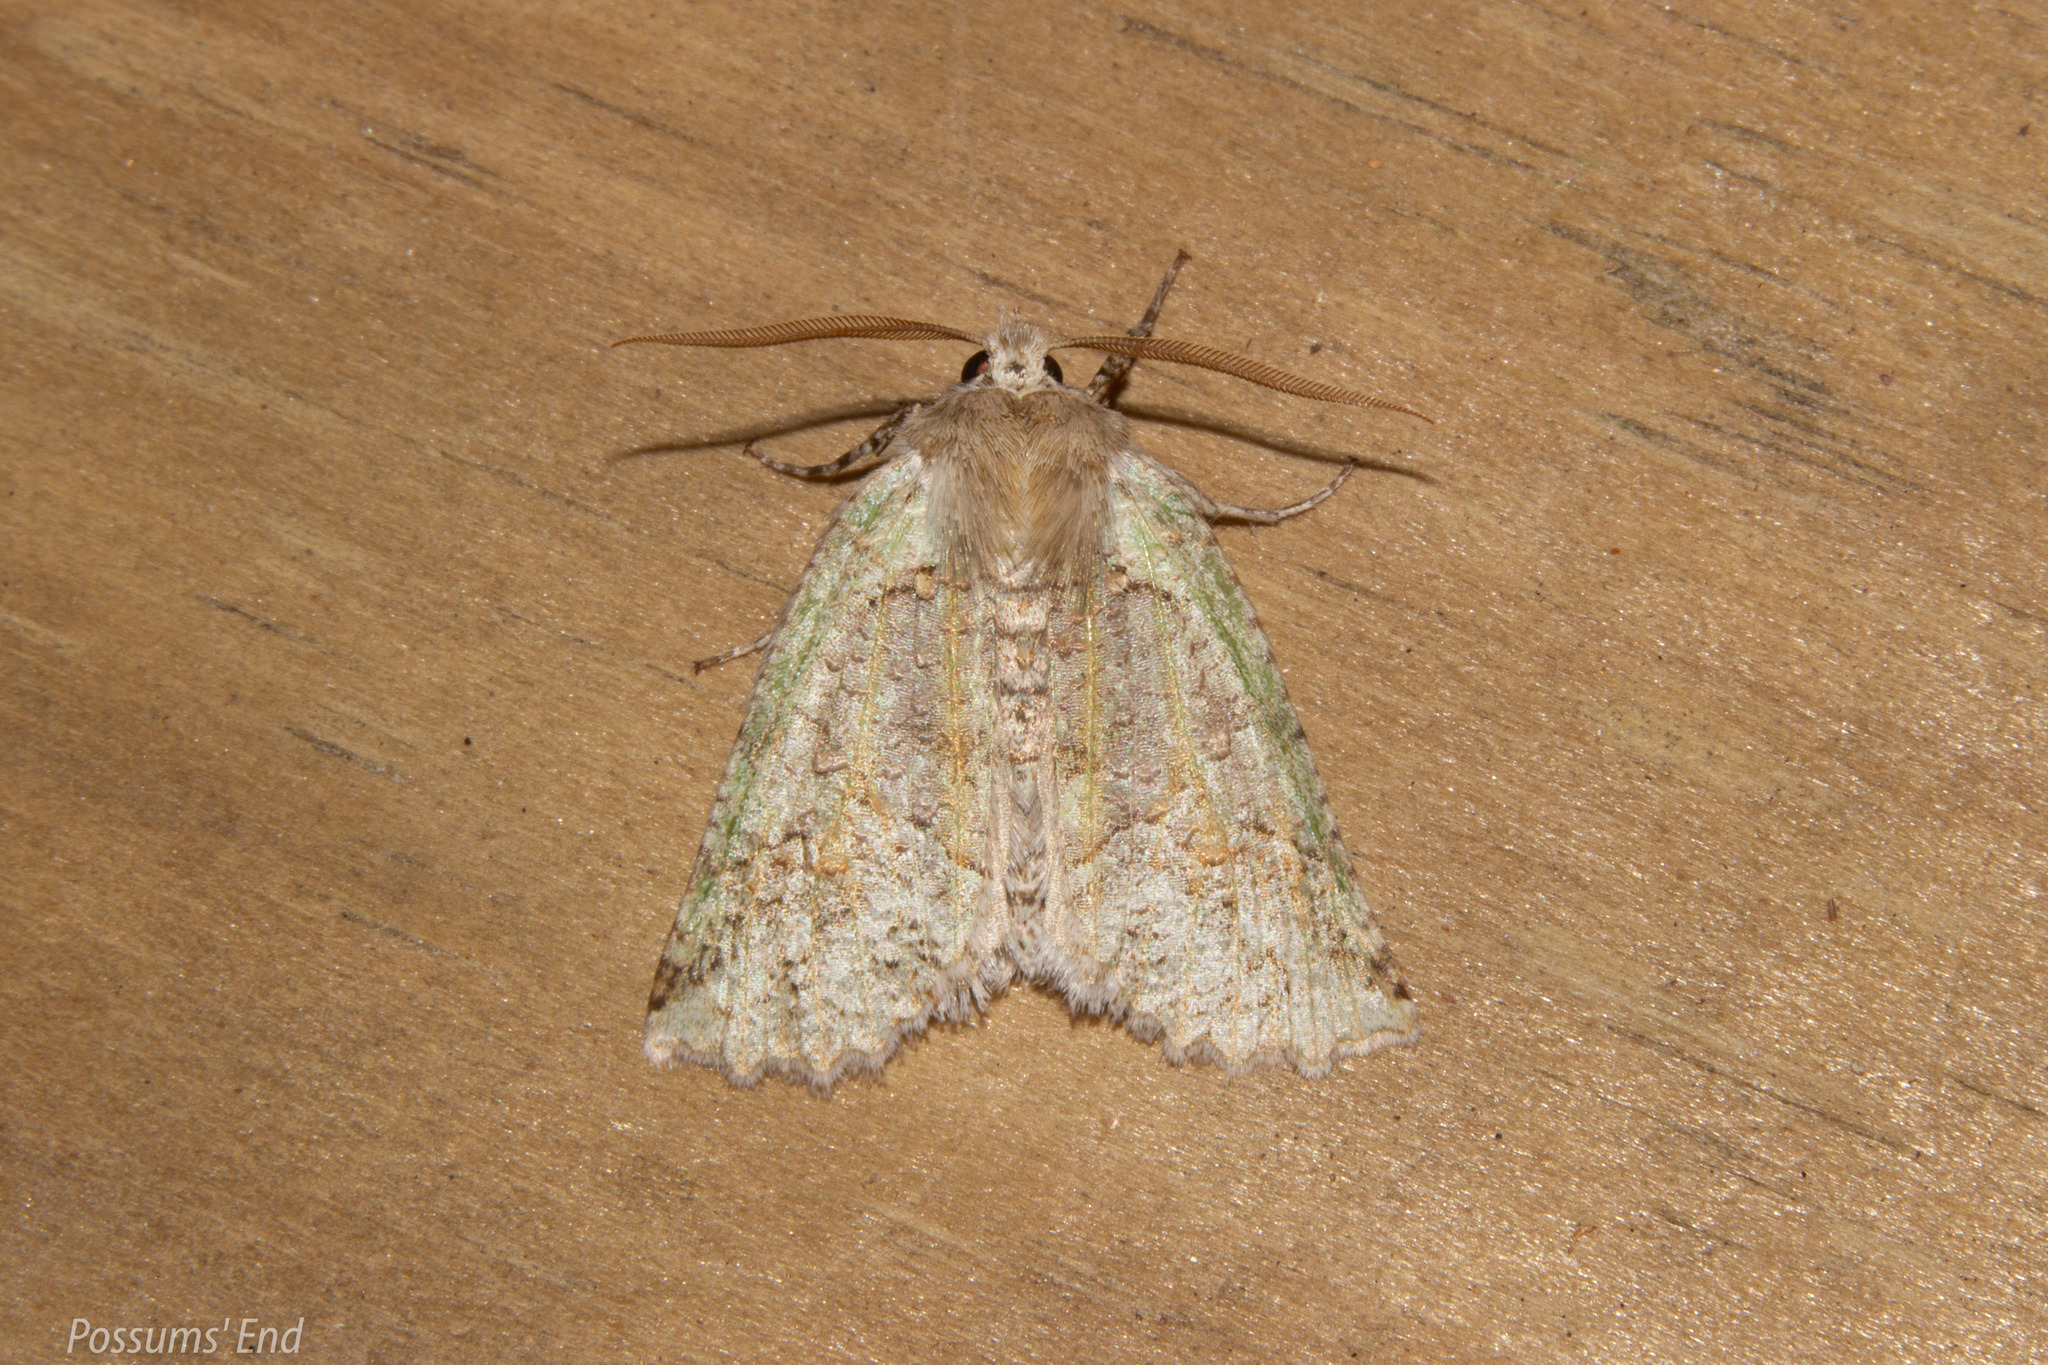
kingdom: Animalia
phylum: Arthropoda
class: Insecta
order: Lepidoptera
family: Geometridae
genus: Declana
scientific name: Declana floccosa
